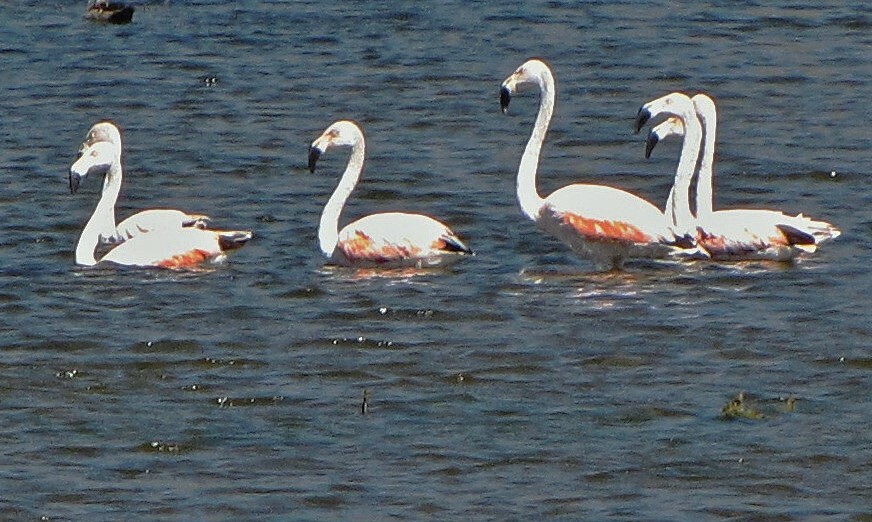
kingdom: Animalia
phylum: Chordata
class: Aves
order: Phoenicopteriformes
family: Phoenicopteridae
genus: Phoenicopterus
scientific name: Phoenicopterus chilensis
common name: Chilean flamingo
